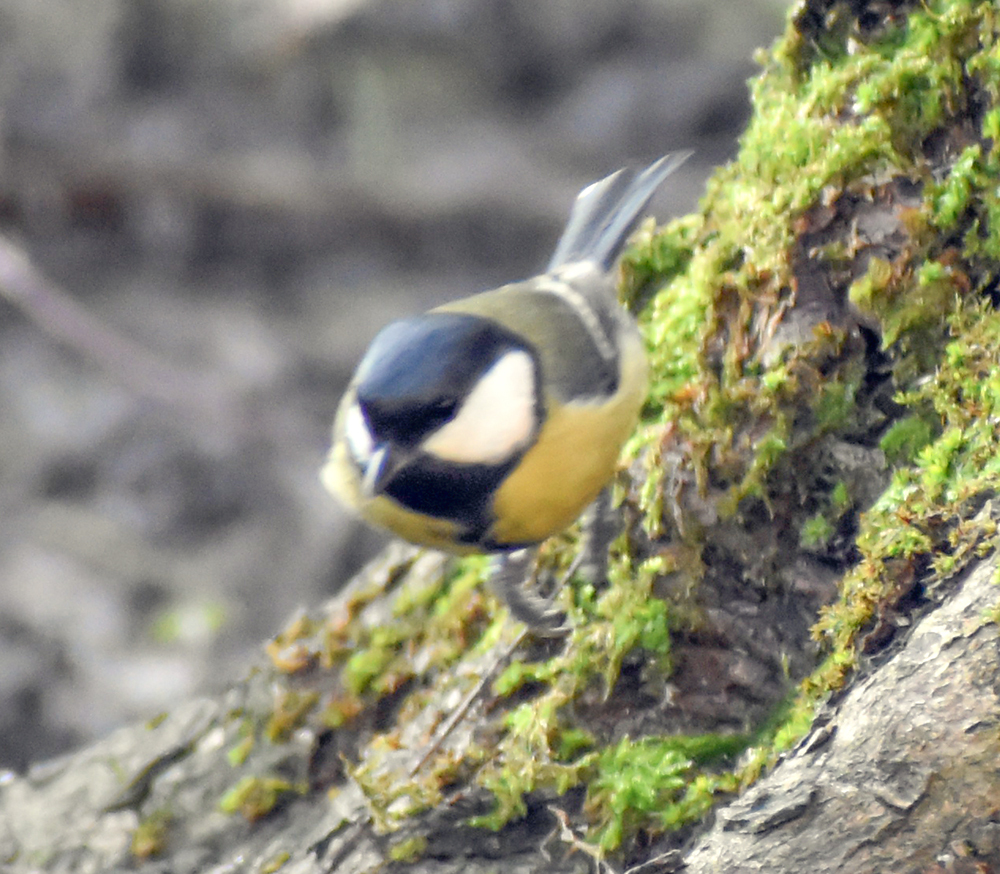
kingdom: Animalia
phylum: Chordata
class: Aves
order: Passeriformes
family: Paridae
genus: Parus
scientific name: Parus major
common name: Great tit
